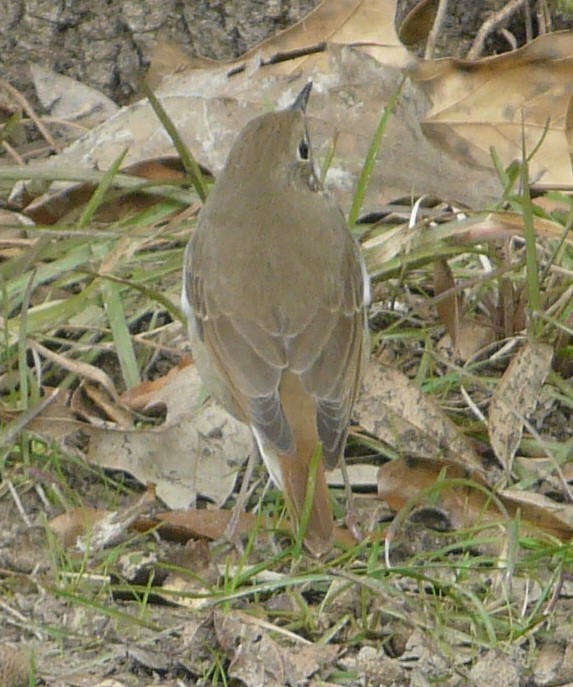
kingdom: Animalia
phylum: Chordata
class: Aves
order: Passeriformes
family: Turdidae
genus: Catharus
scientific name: Catharus guttatus
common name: Hermit thrush
